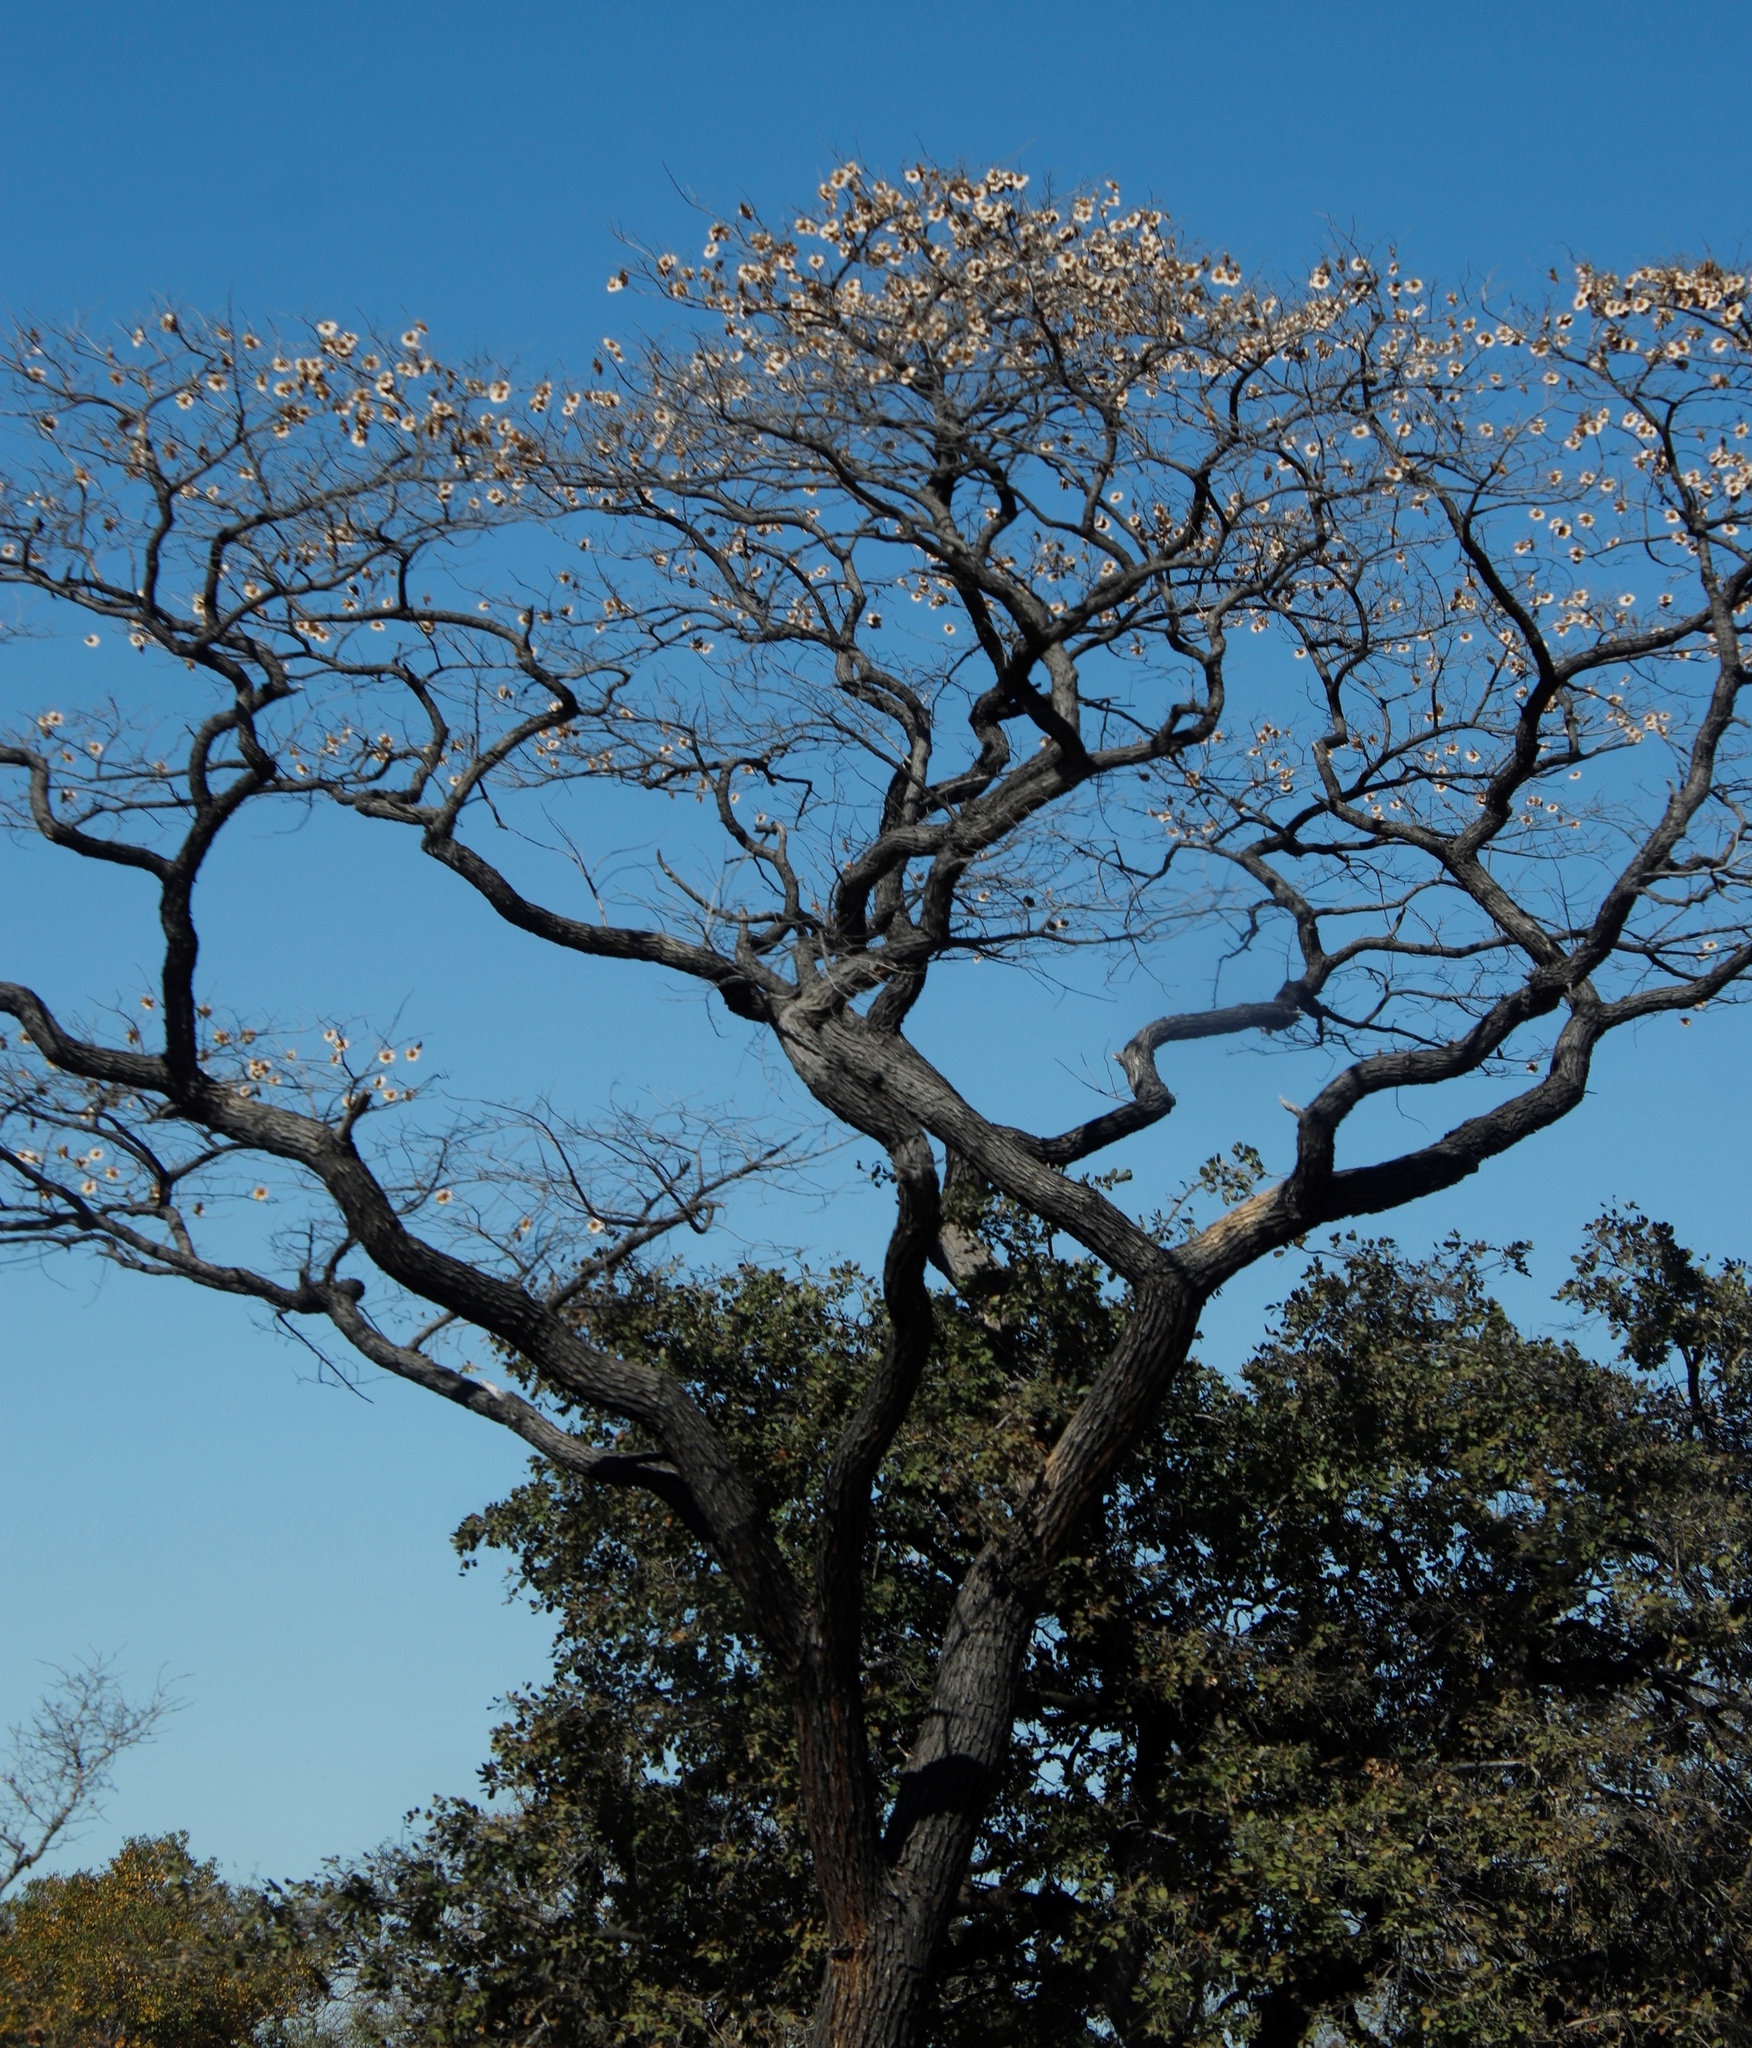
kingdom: Plantae
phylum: Tracheophyta
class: Magnoliopsida
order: Fabales
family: Fabaceae
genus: Pterocarpus
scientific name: Pterocarpus angolensis
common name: Bloodwood tree
